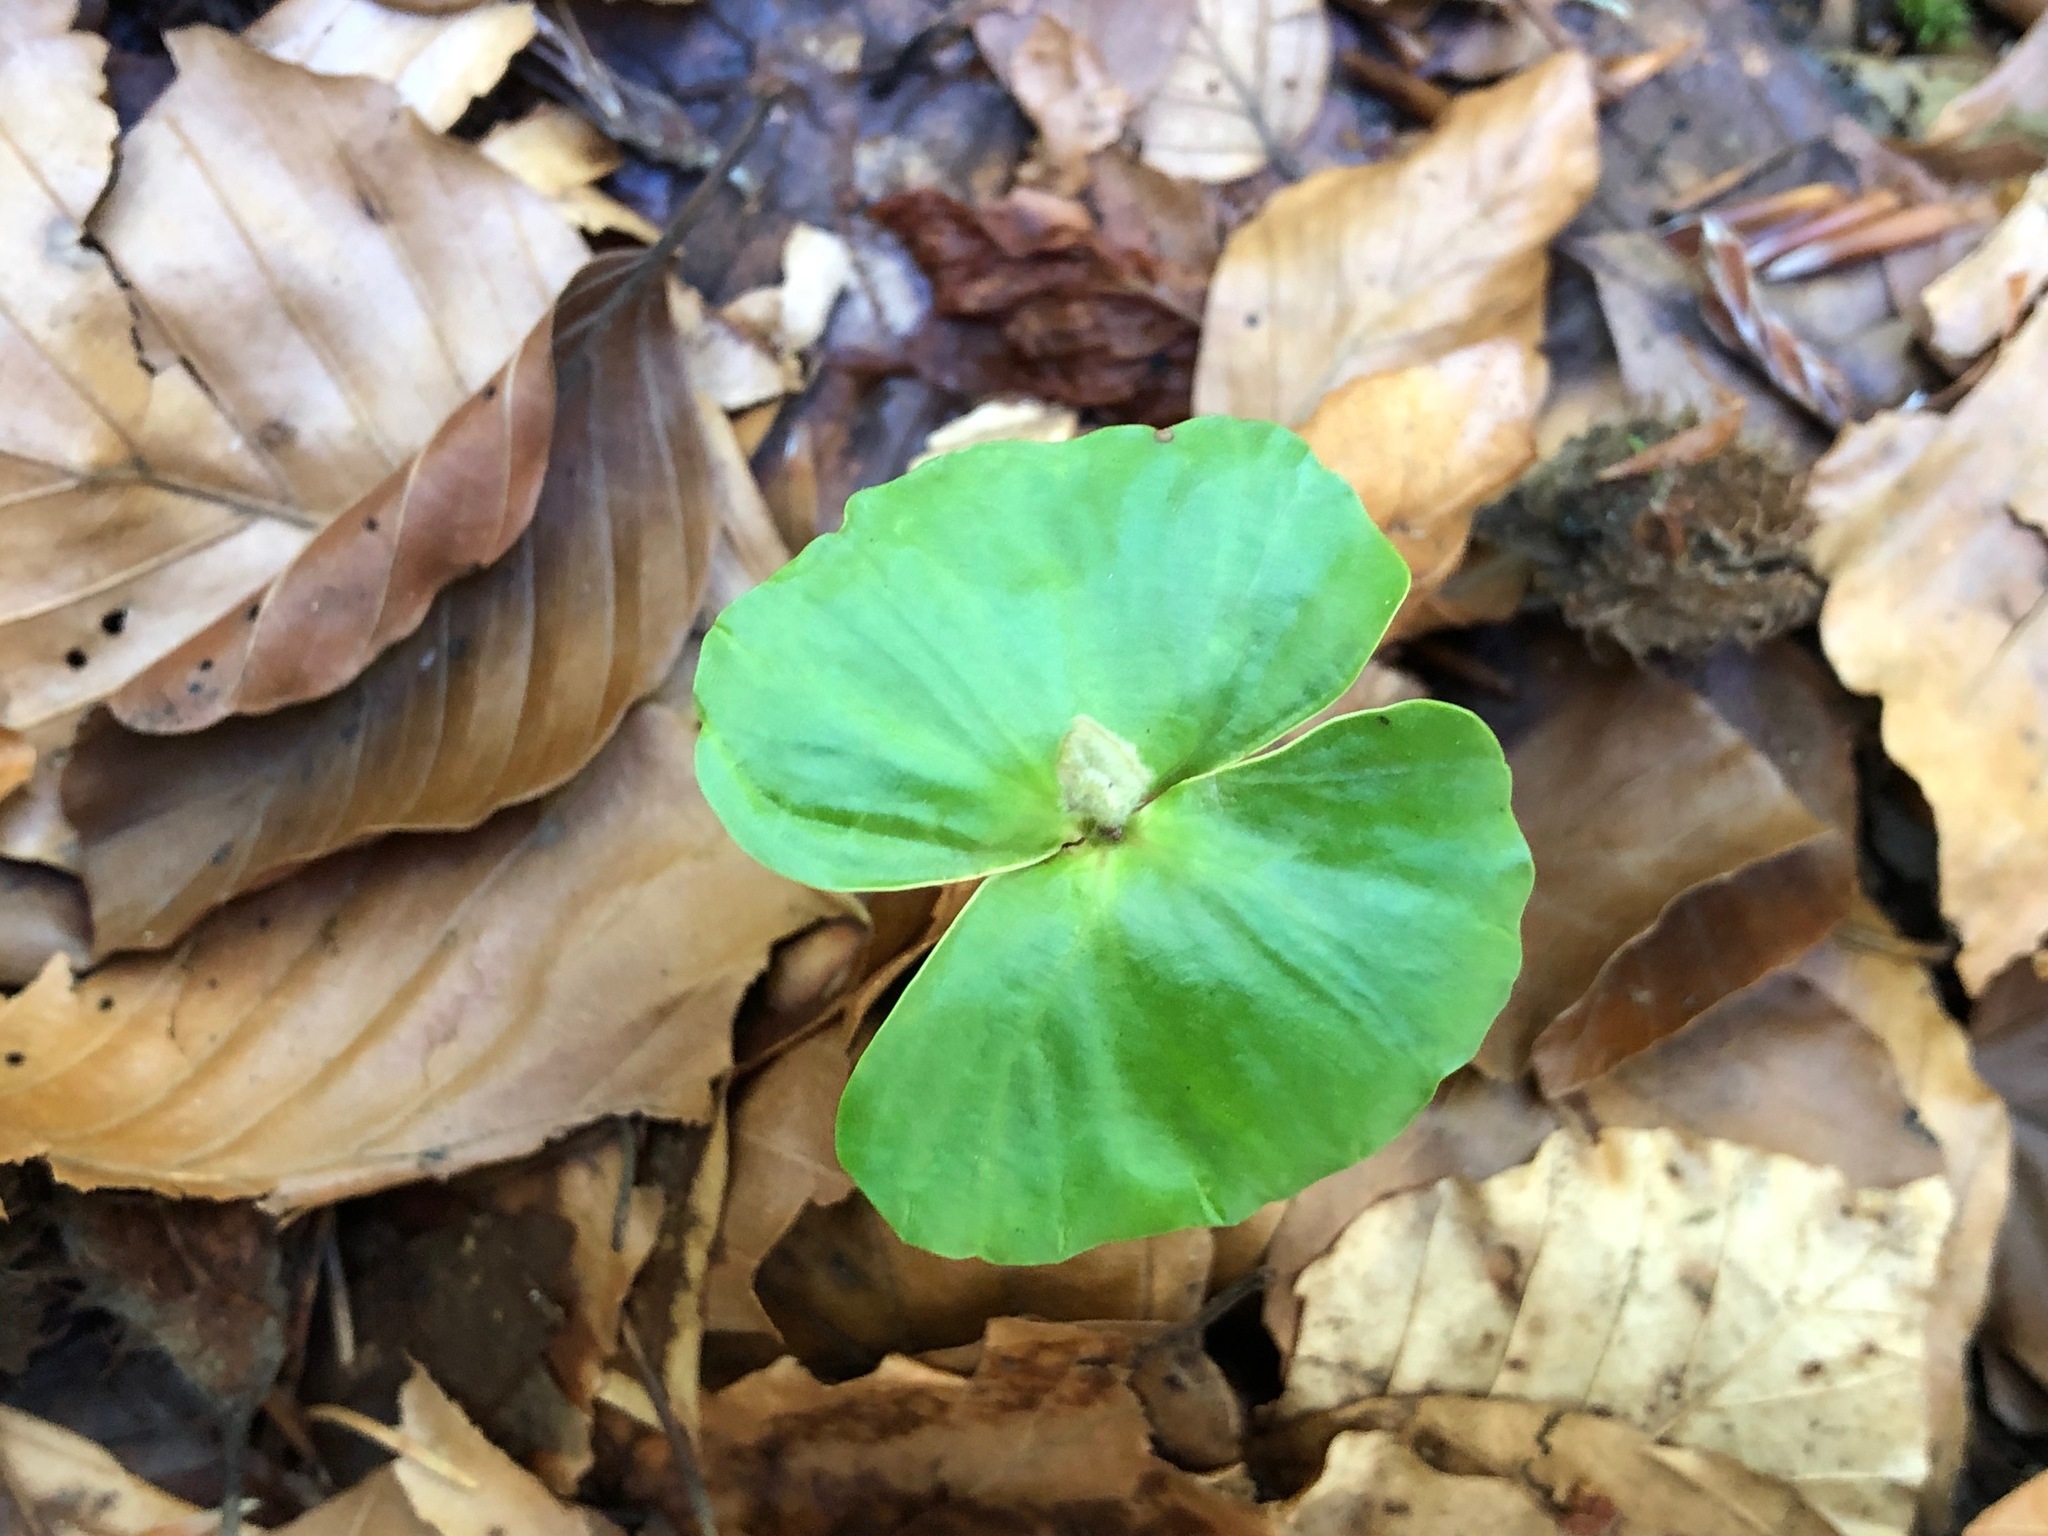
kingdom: Plantae
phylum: Tracheophyta
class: Magnoliopsida
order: Fagales
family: Fagaceae
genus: Fagus
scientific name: Fagus sylvatica
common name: Beech
